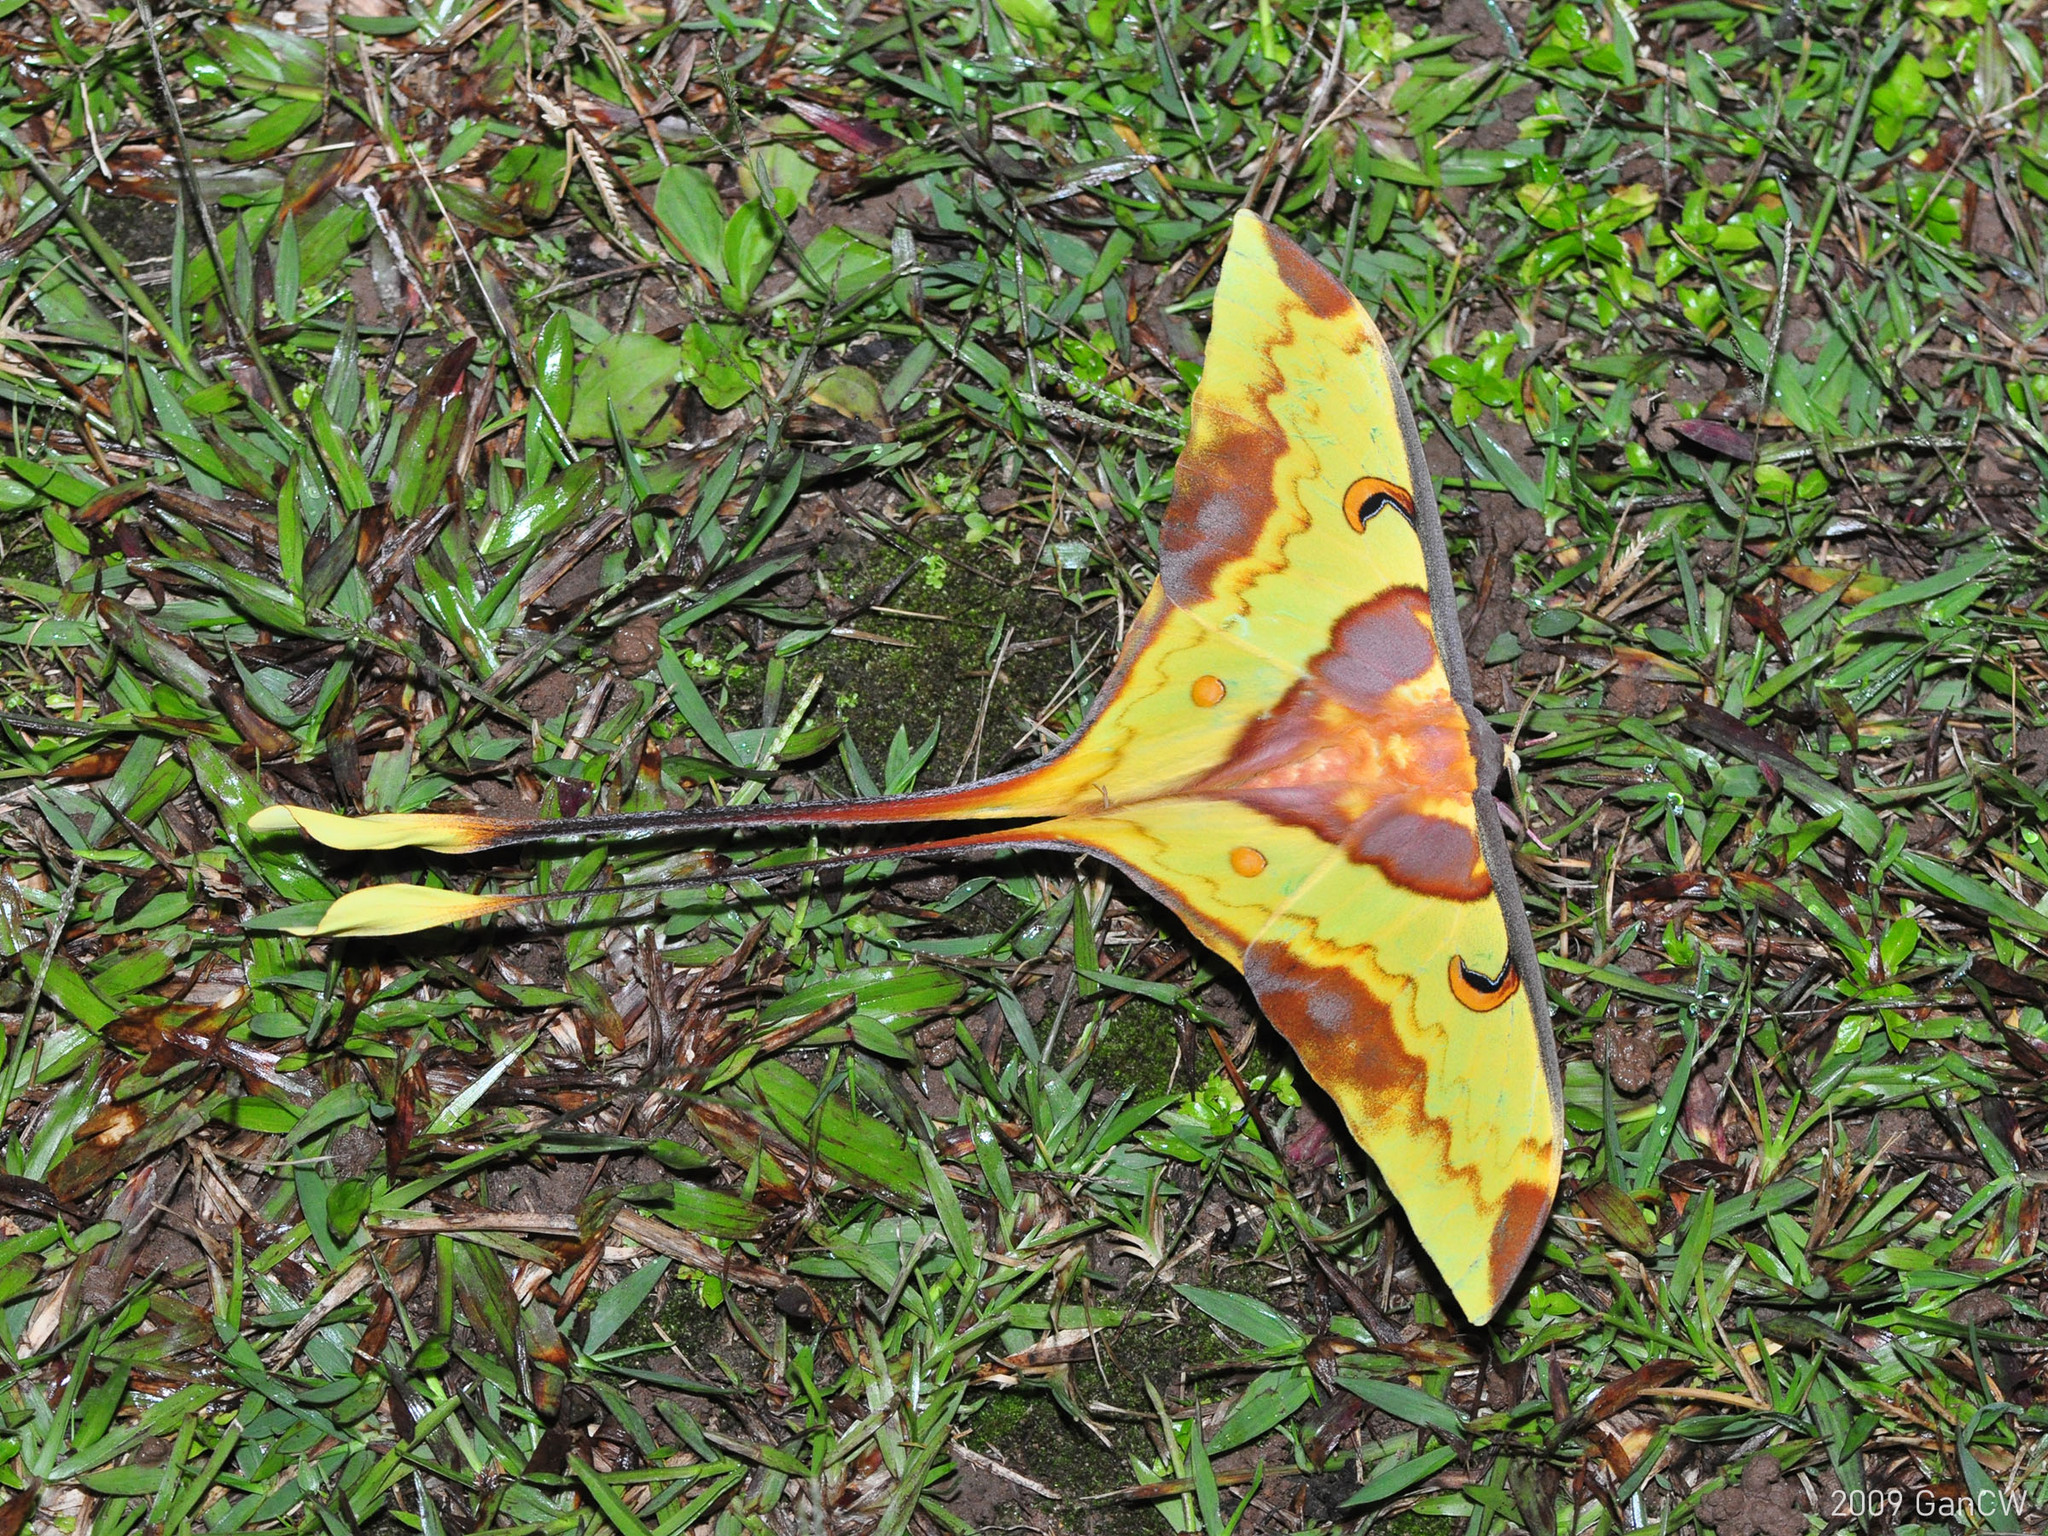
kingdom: Animalia
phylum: Arthropoda
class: Insecta
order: Lepidoptera
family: Saturniidae
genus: Actias
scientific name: Actias maenas
